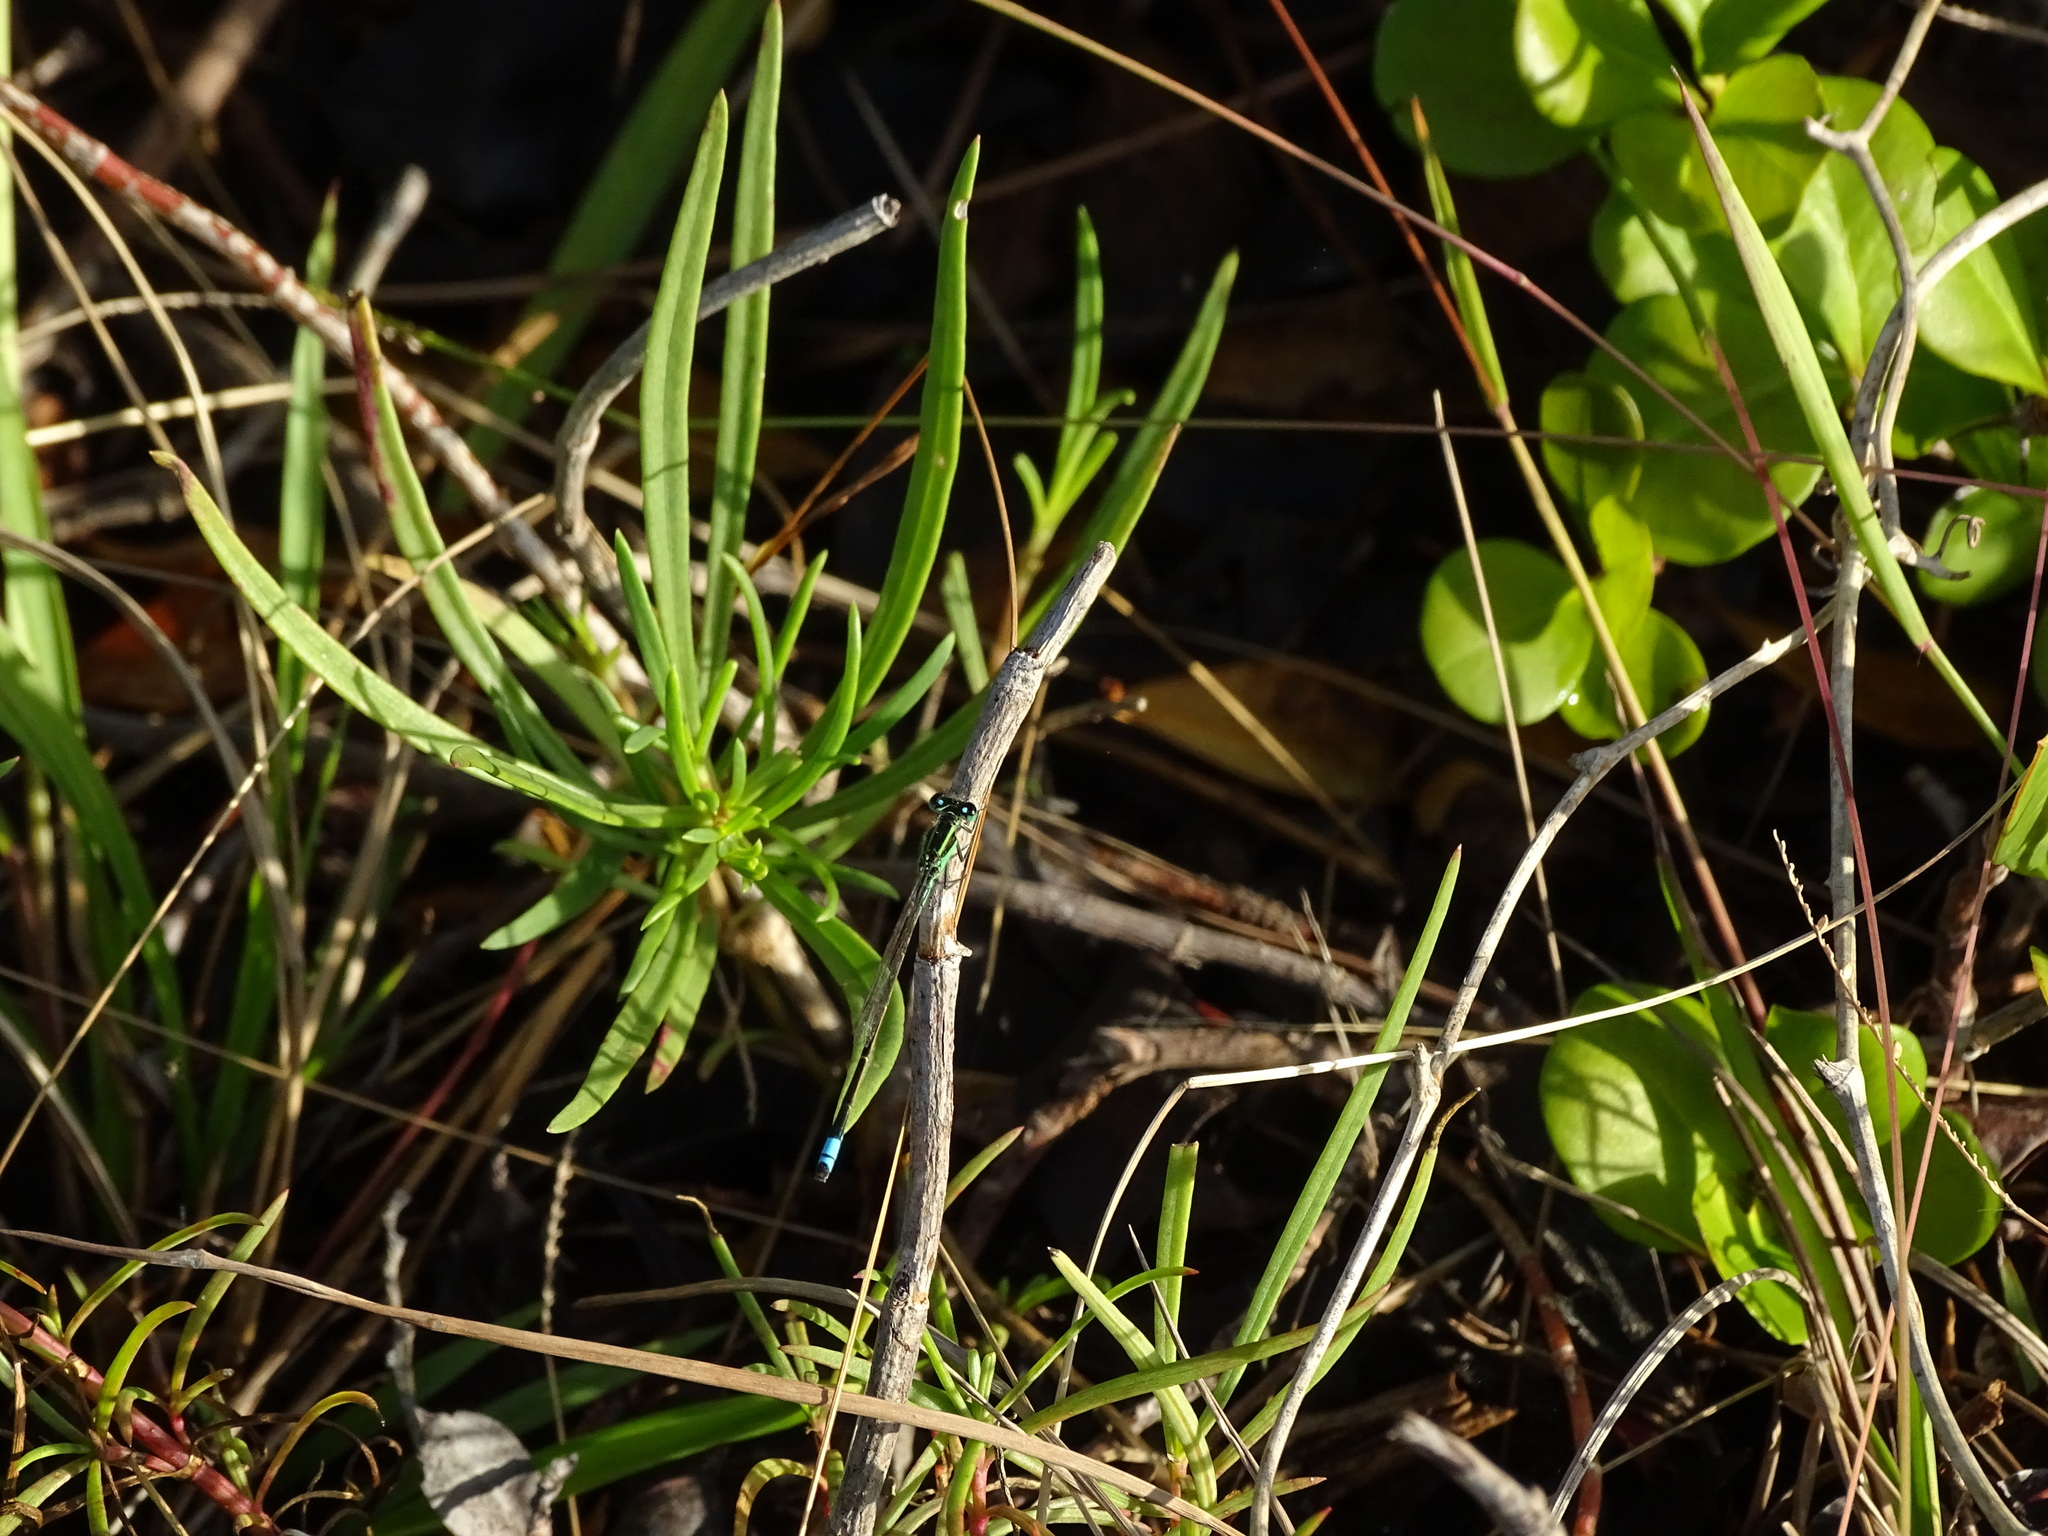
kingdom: Animalia
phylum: Arthropoda
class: Insecta
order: Odonata
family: Coenagrionidae
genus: Ischnura
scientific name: Ischnura ramburii
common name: Rambur's forktail
